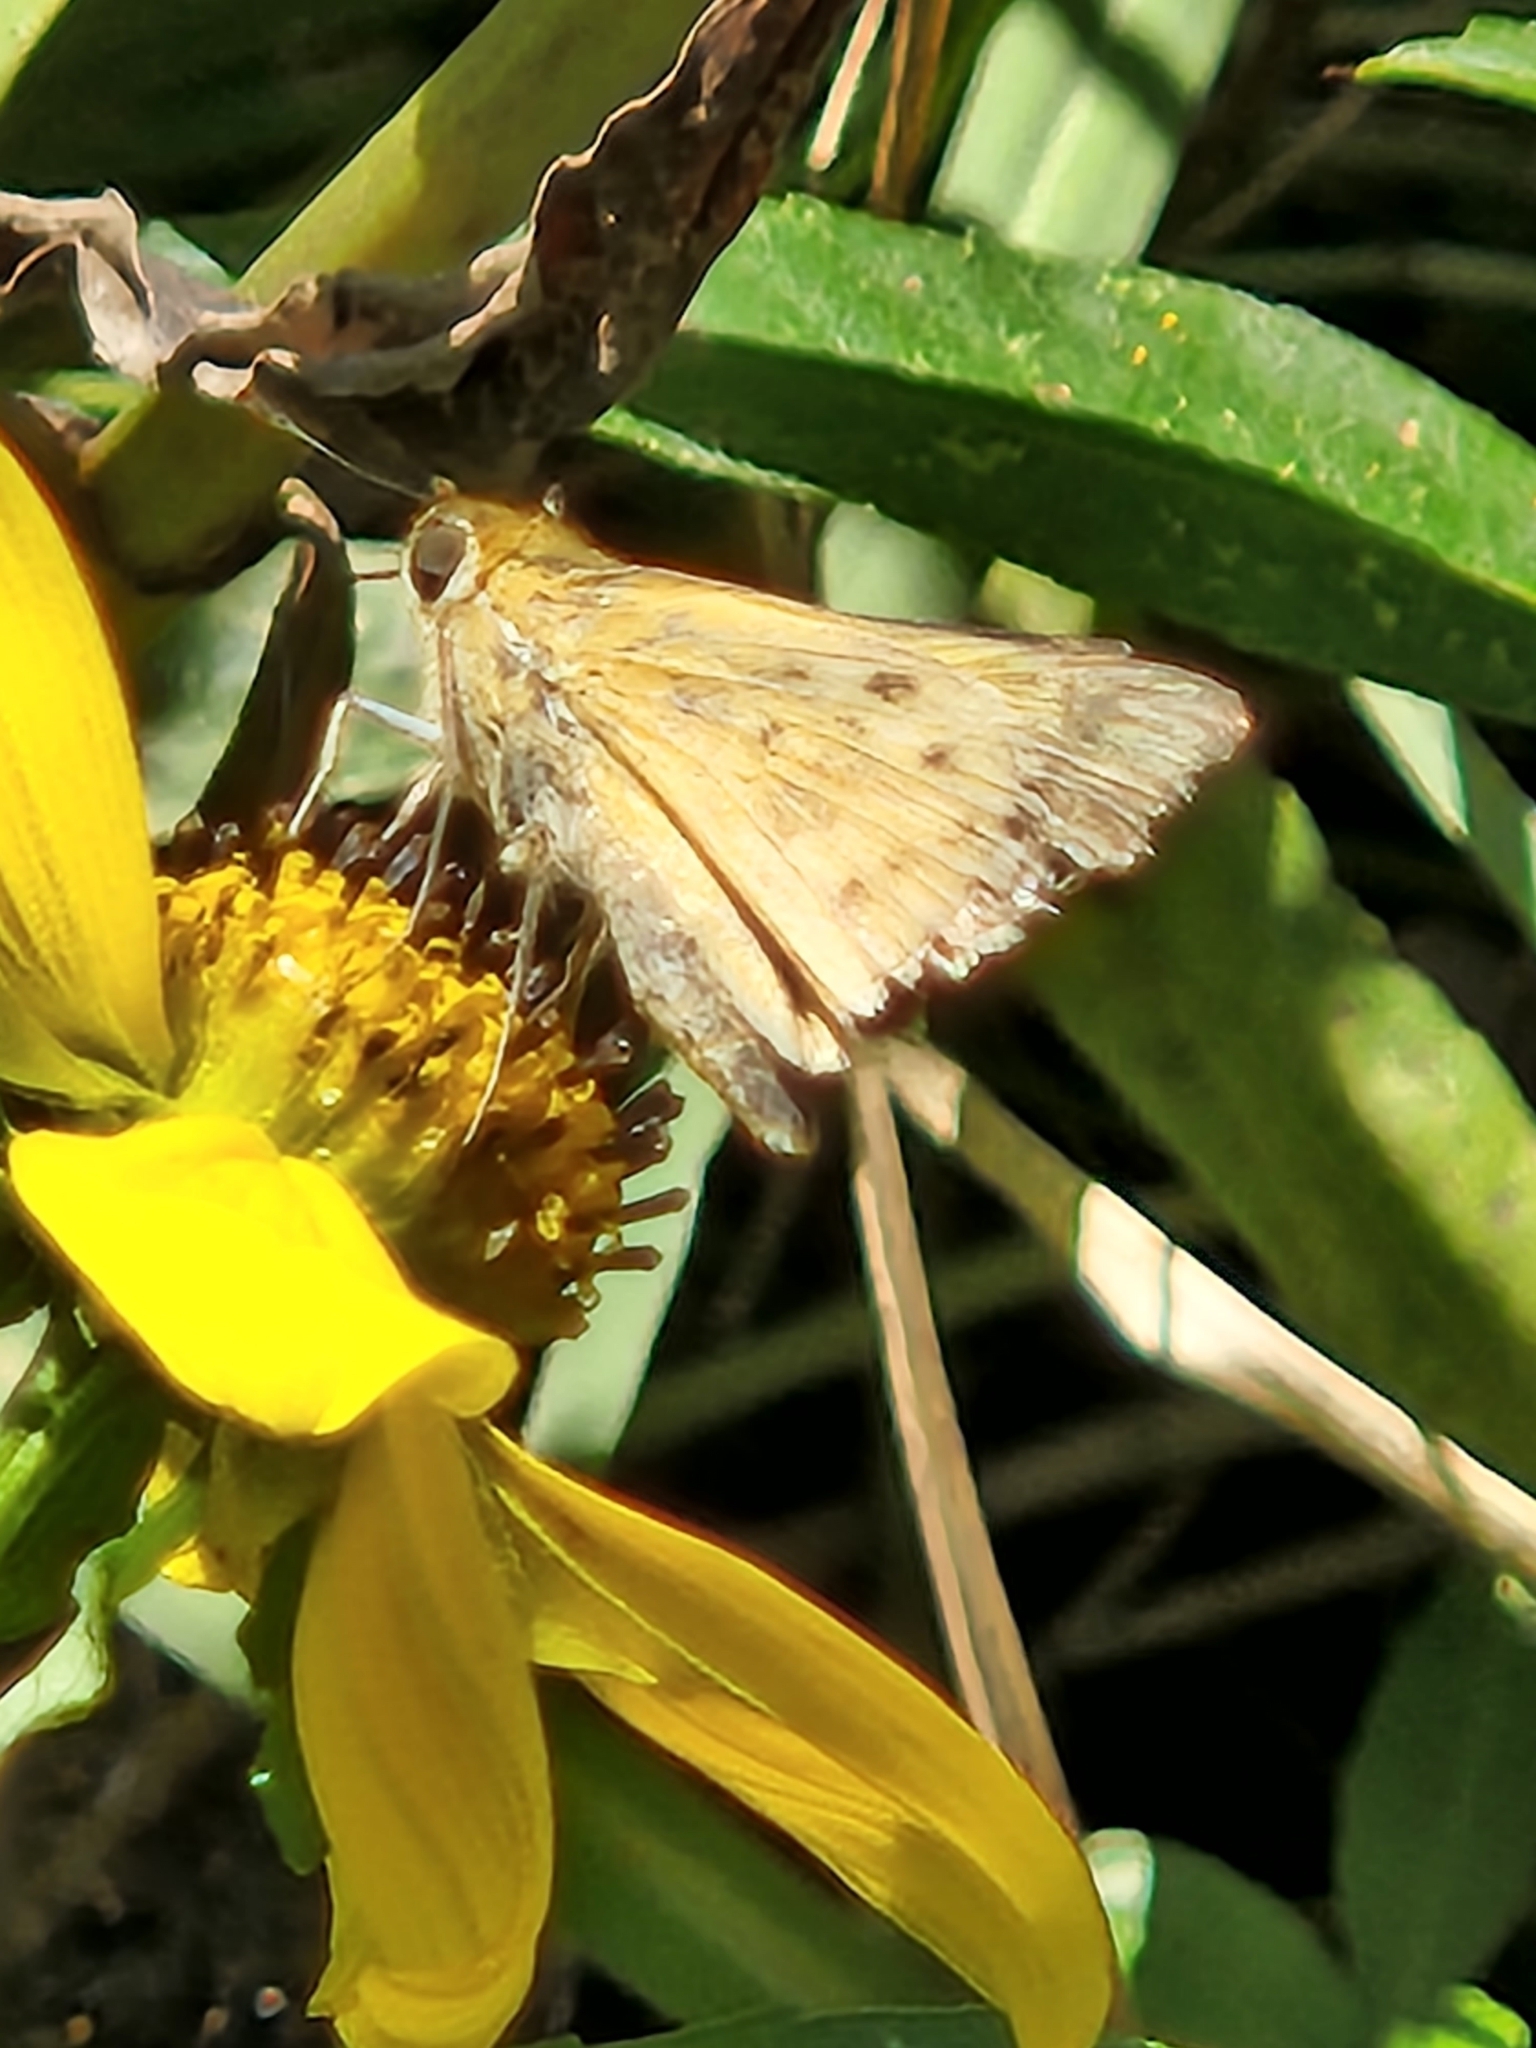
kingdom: Animalia
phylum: Arthropoda
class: Insecta
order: Lepidoptera
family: Hesperiidae
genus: Hylephila
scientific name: Hylephila phyleus
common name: Fiery skipper
